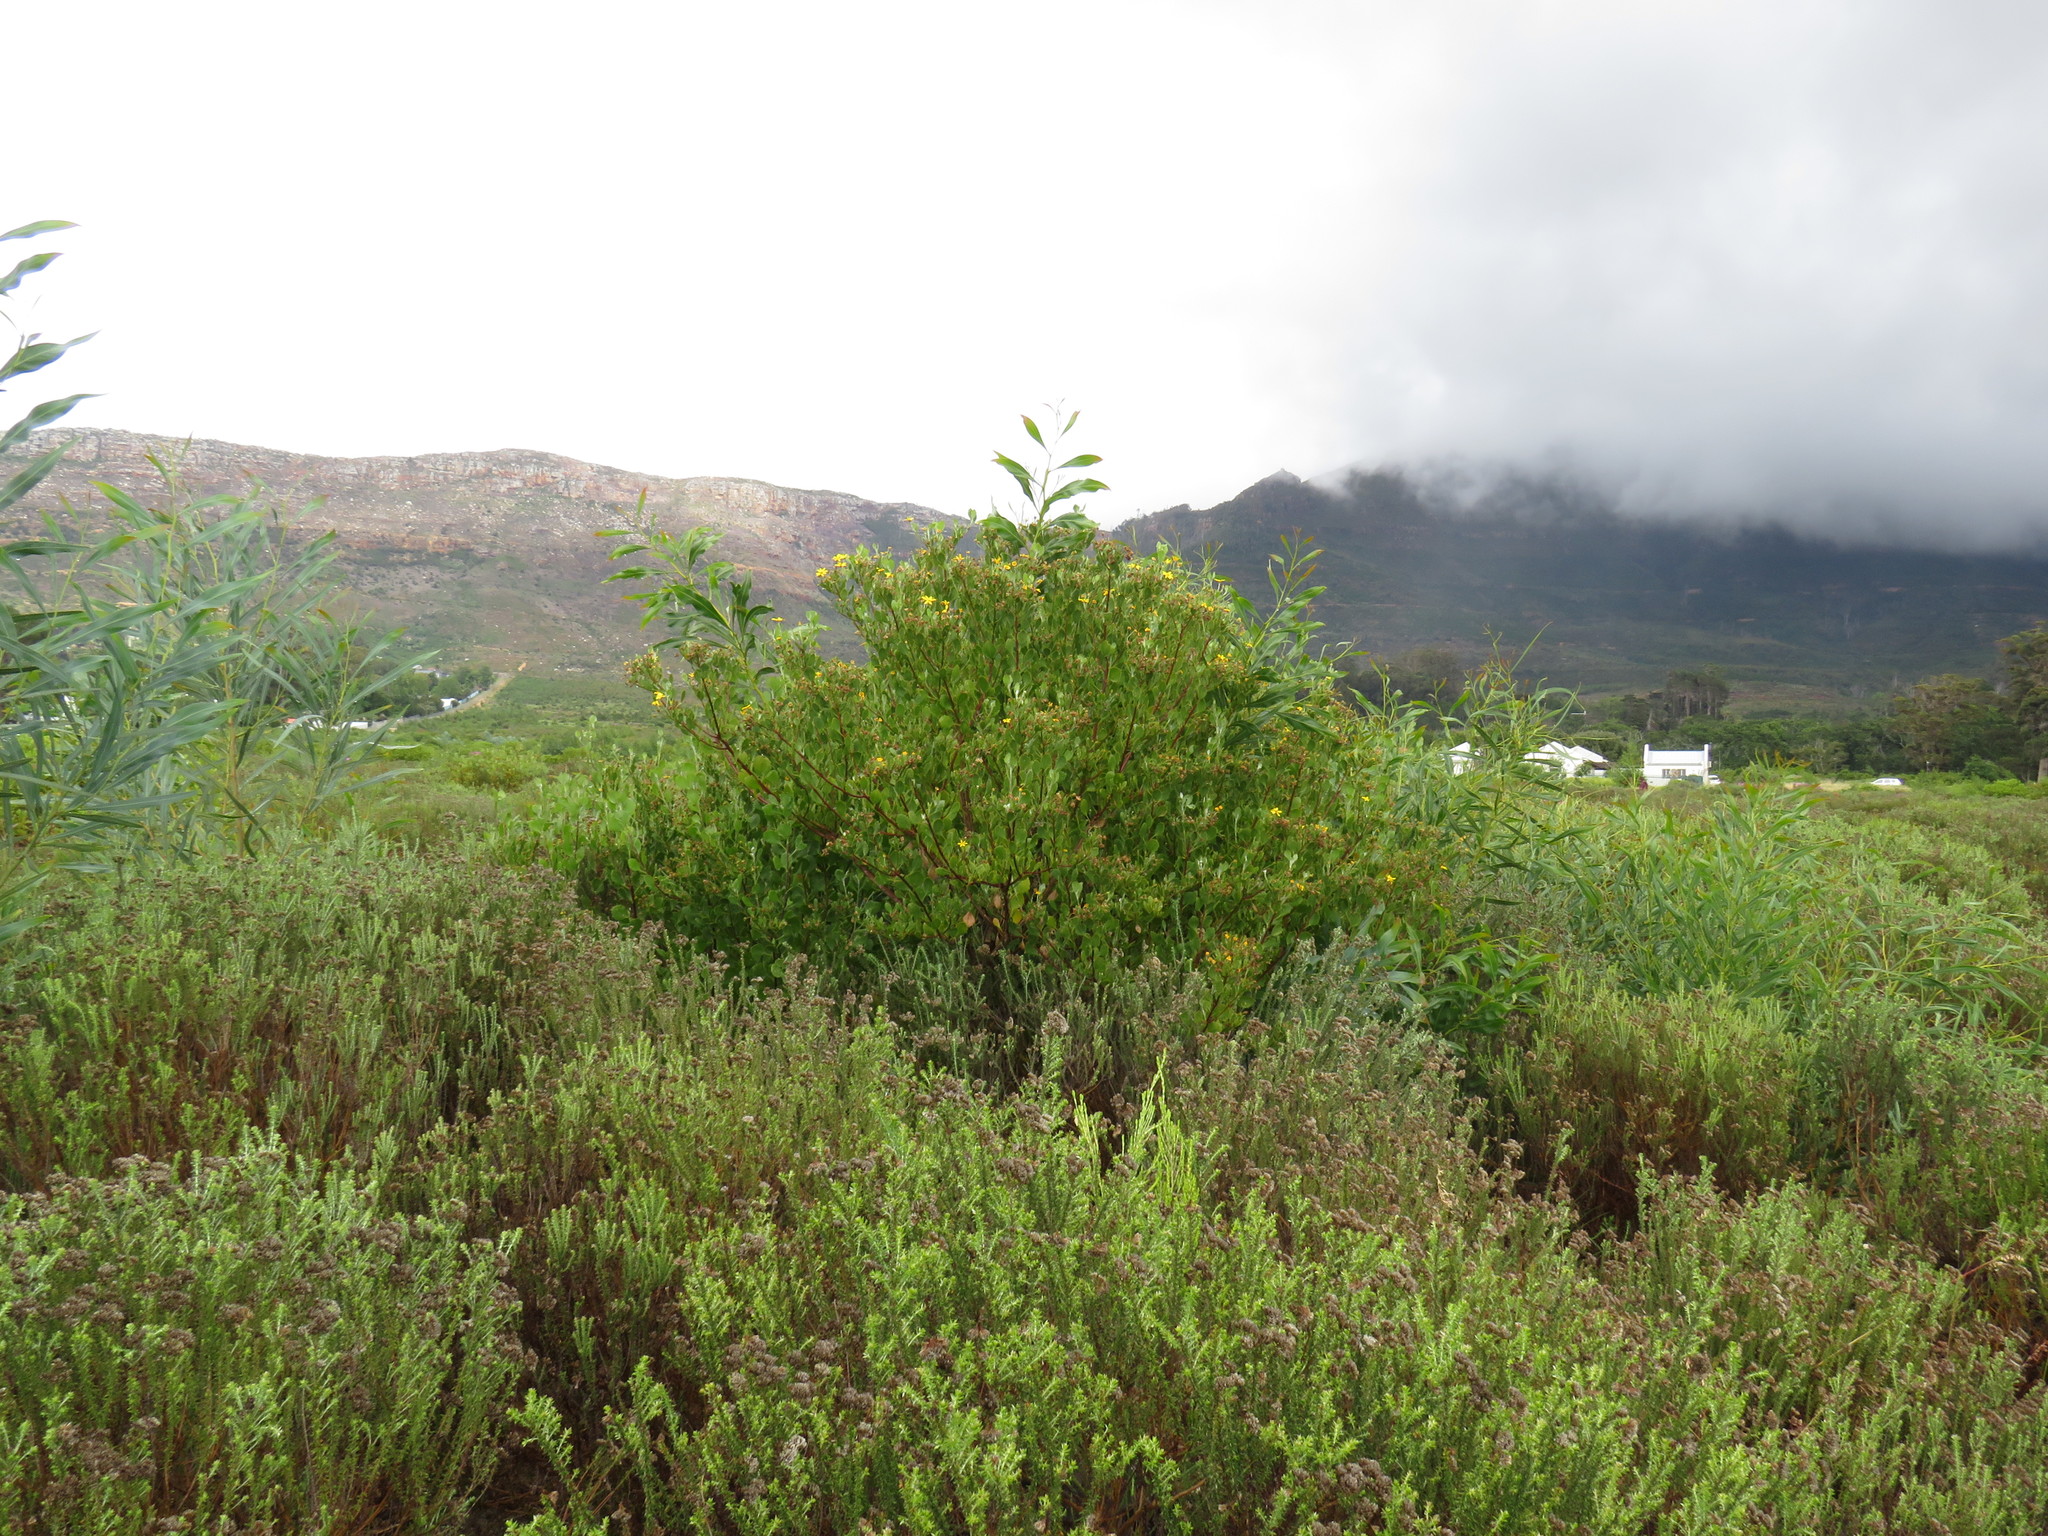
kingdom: Plantae
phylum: Tracheophyta
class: Magnoliopsida
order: Asterales
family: Asteraceae
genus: Osteospermum
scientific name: Osteospermum moniliferum
